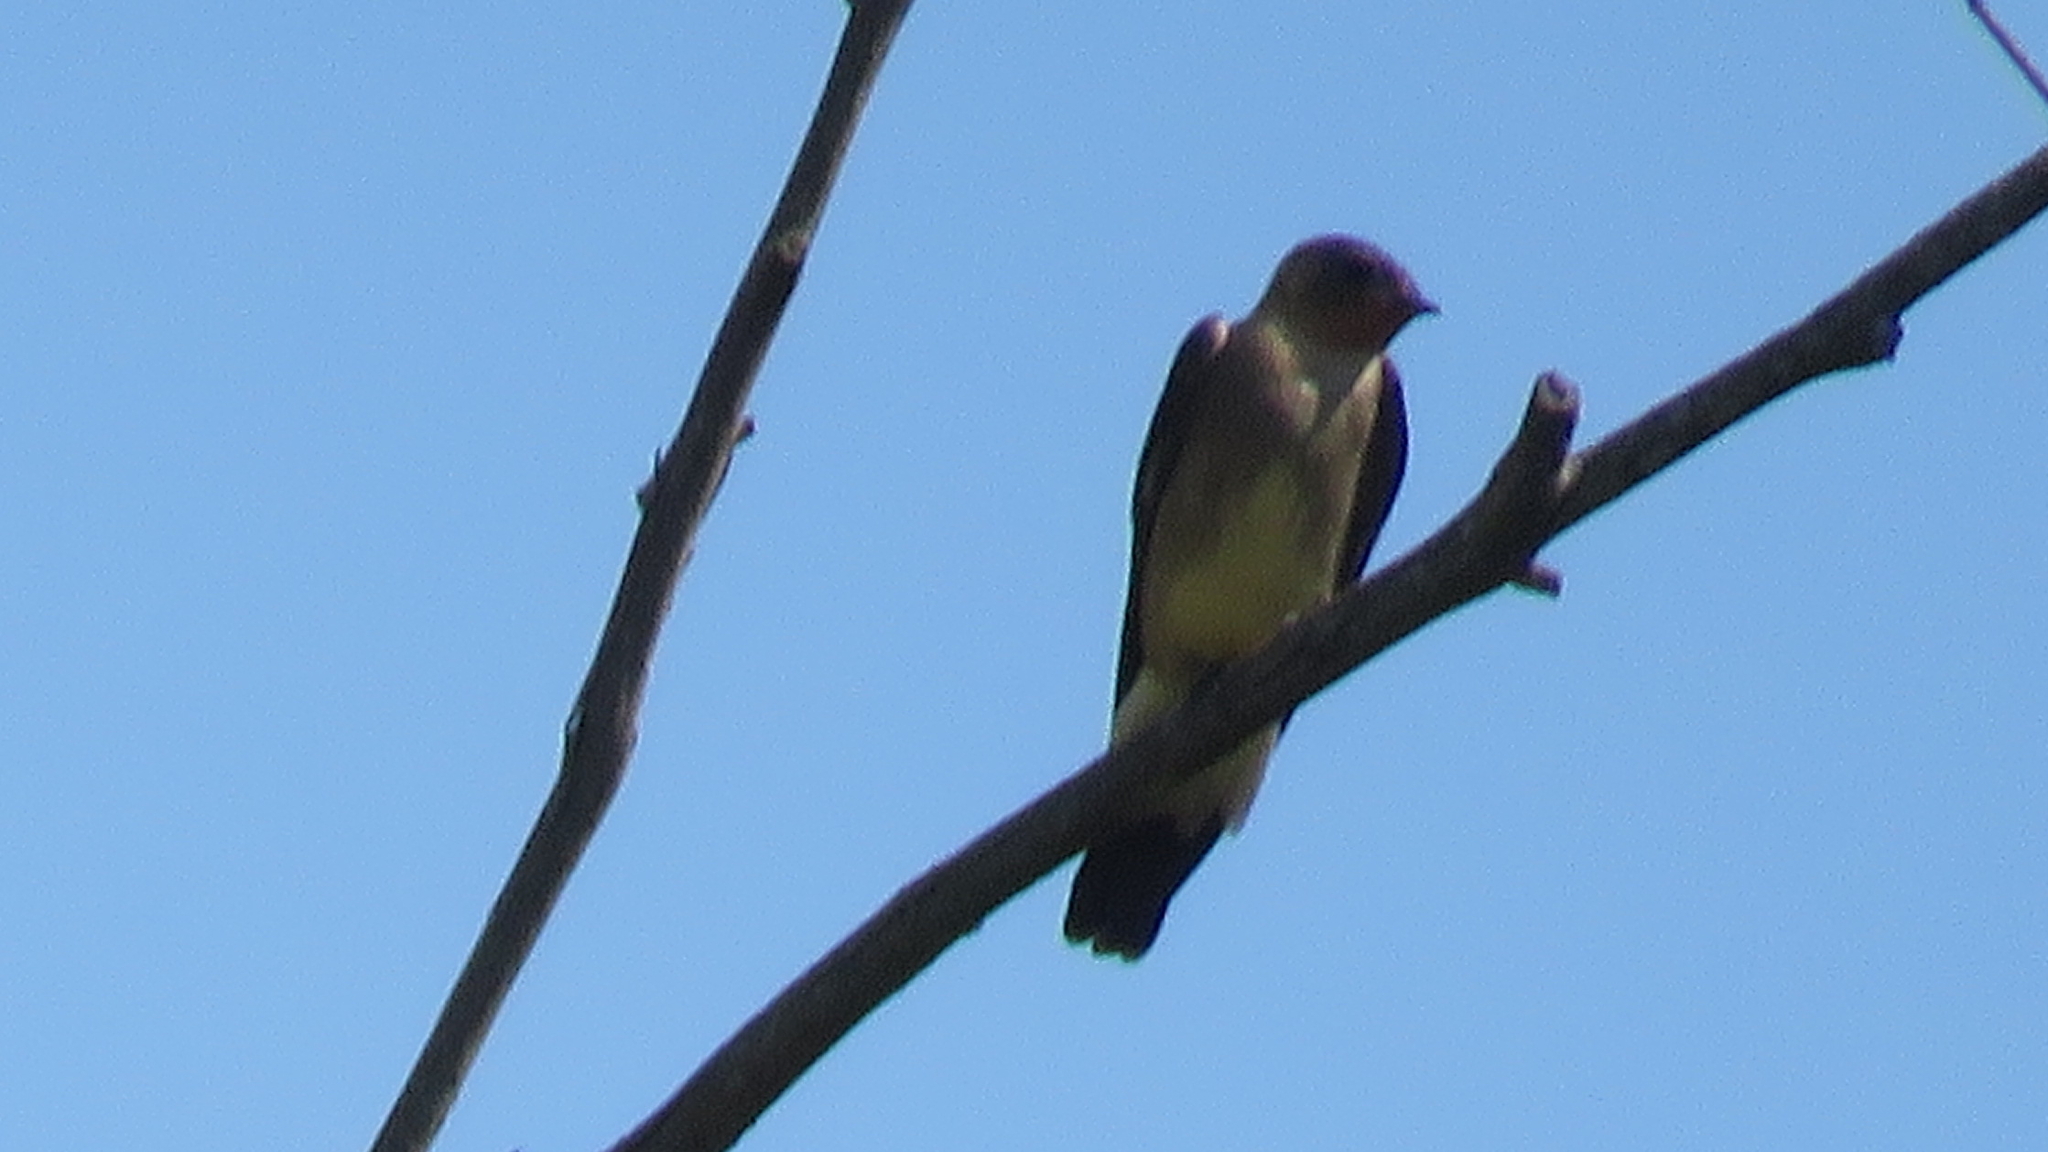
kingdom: Animalia
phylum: Chordata
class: Aves
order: Passeriformes
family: Hirundinidae
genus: Stelgidopteryx
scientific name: Stelgidopteryx ruficollis
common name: Southern rough-winged swallow
